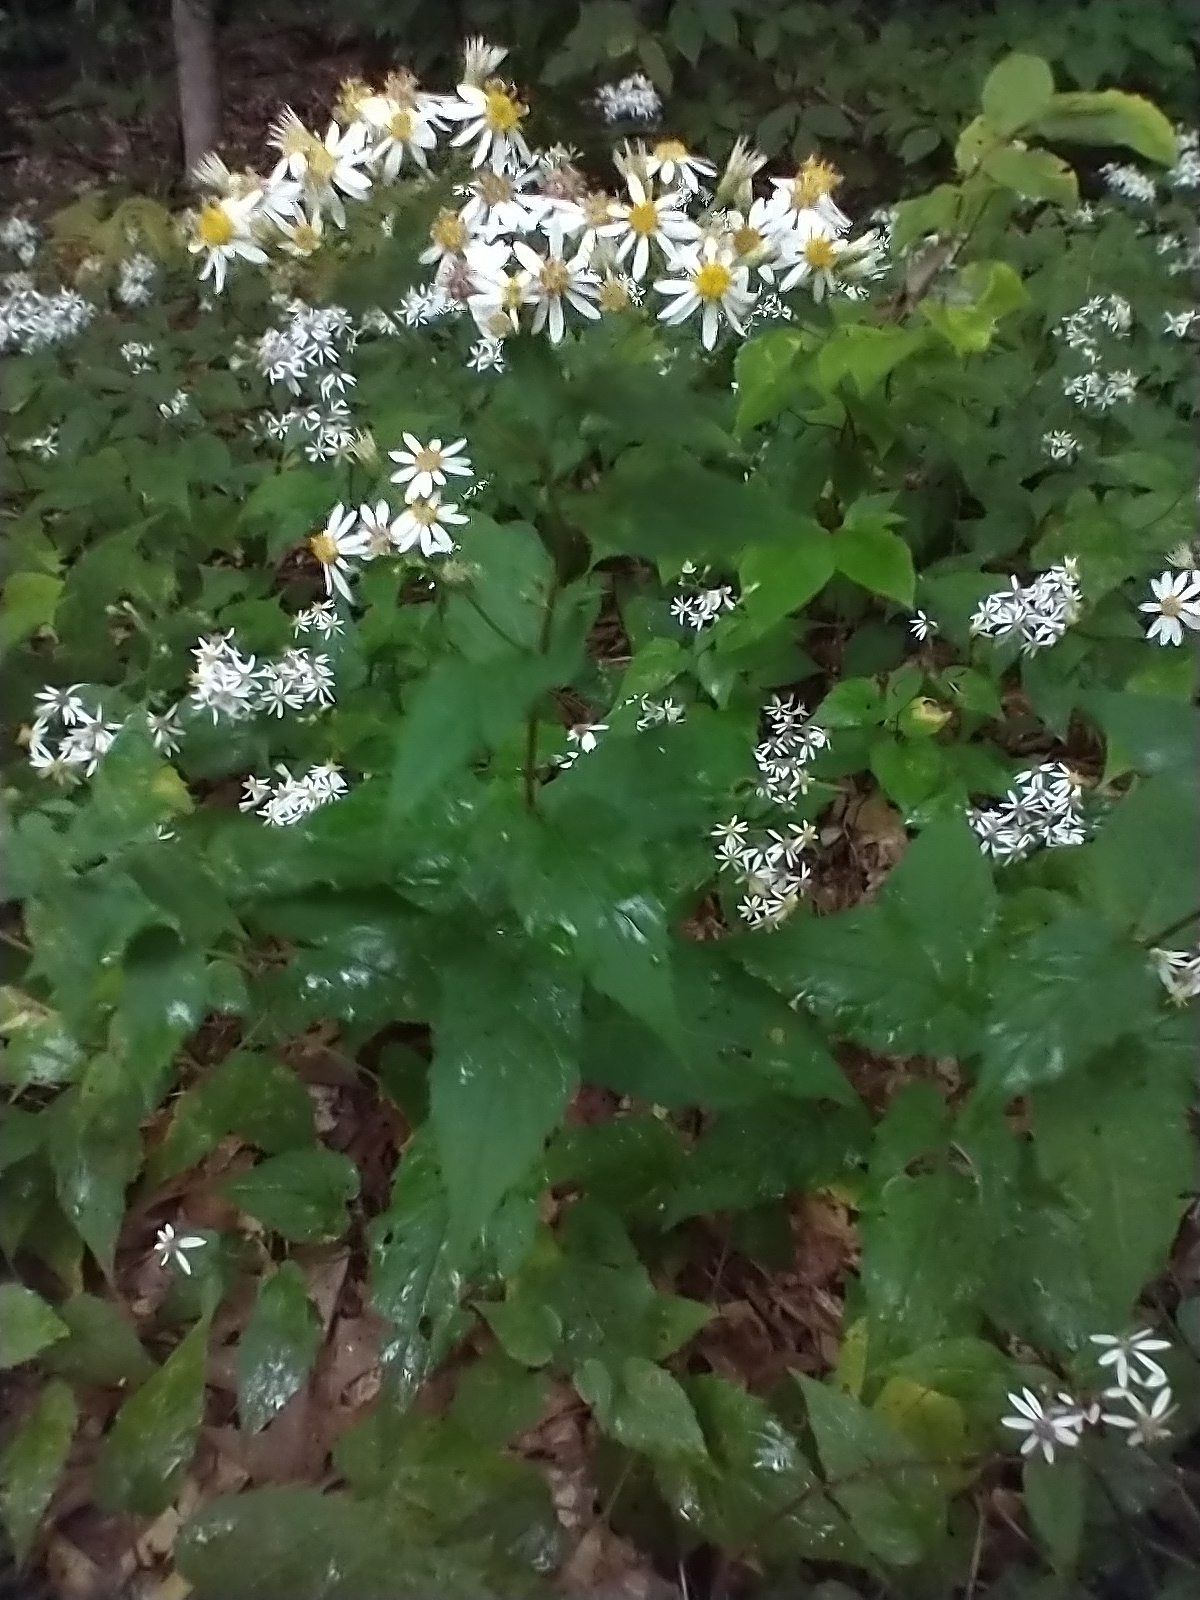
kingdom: Plantae
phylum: Tracheophyta
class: Magnoliopsida
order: Asterales
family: Asteraceae
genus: Eurybia
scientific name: Eurybia divaricata
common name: White wood aster
